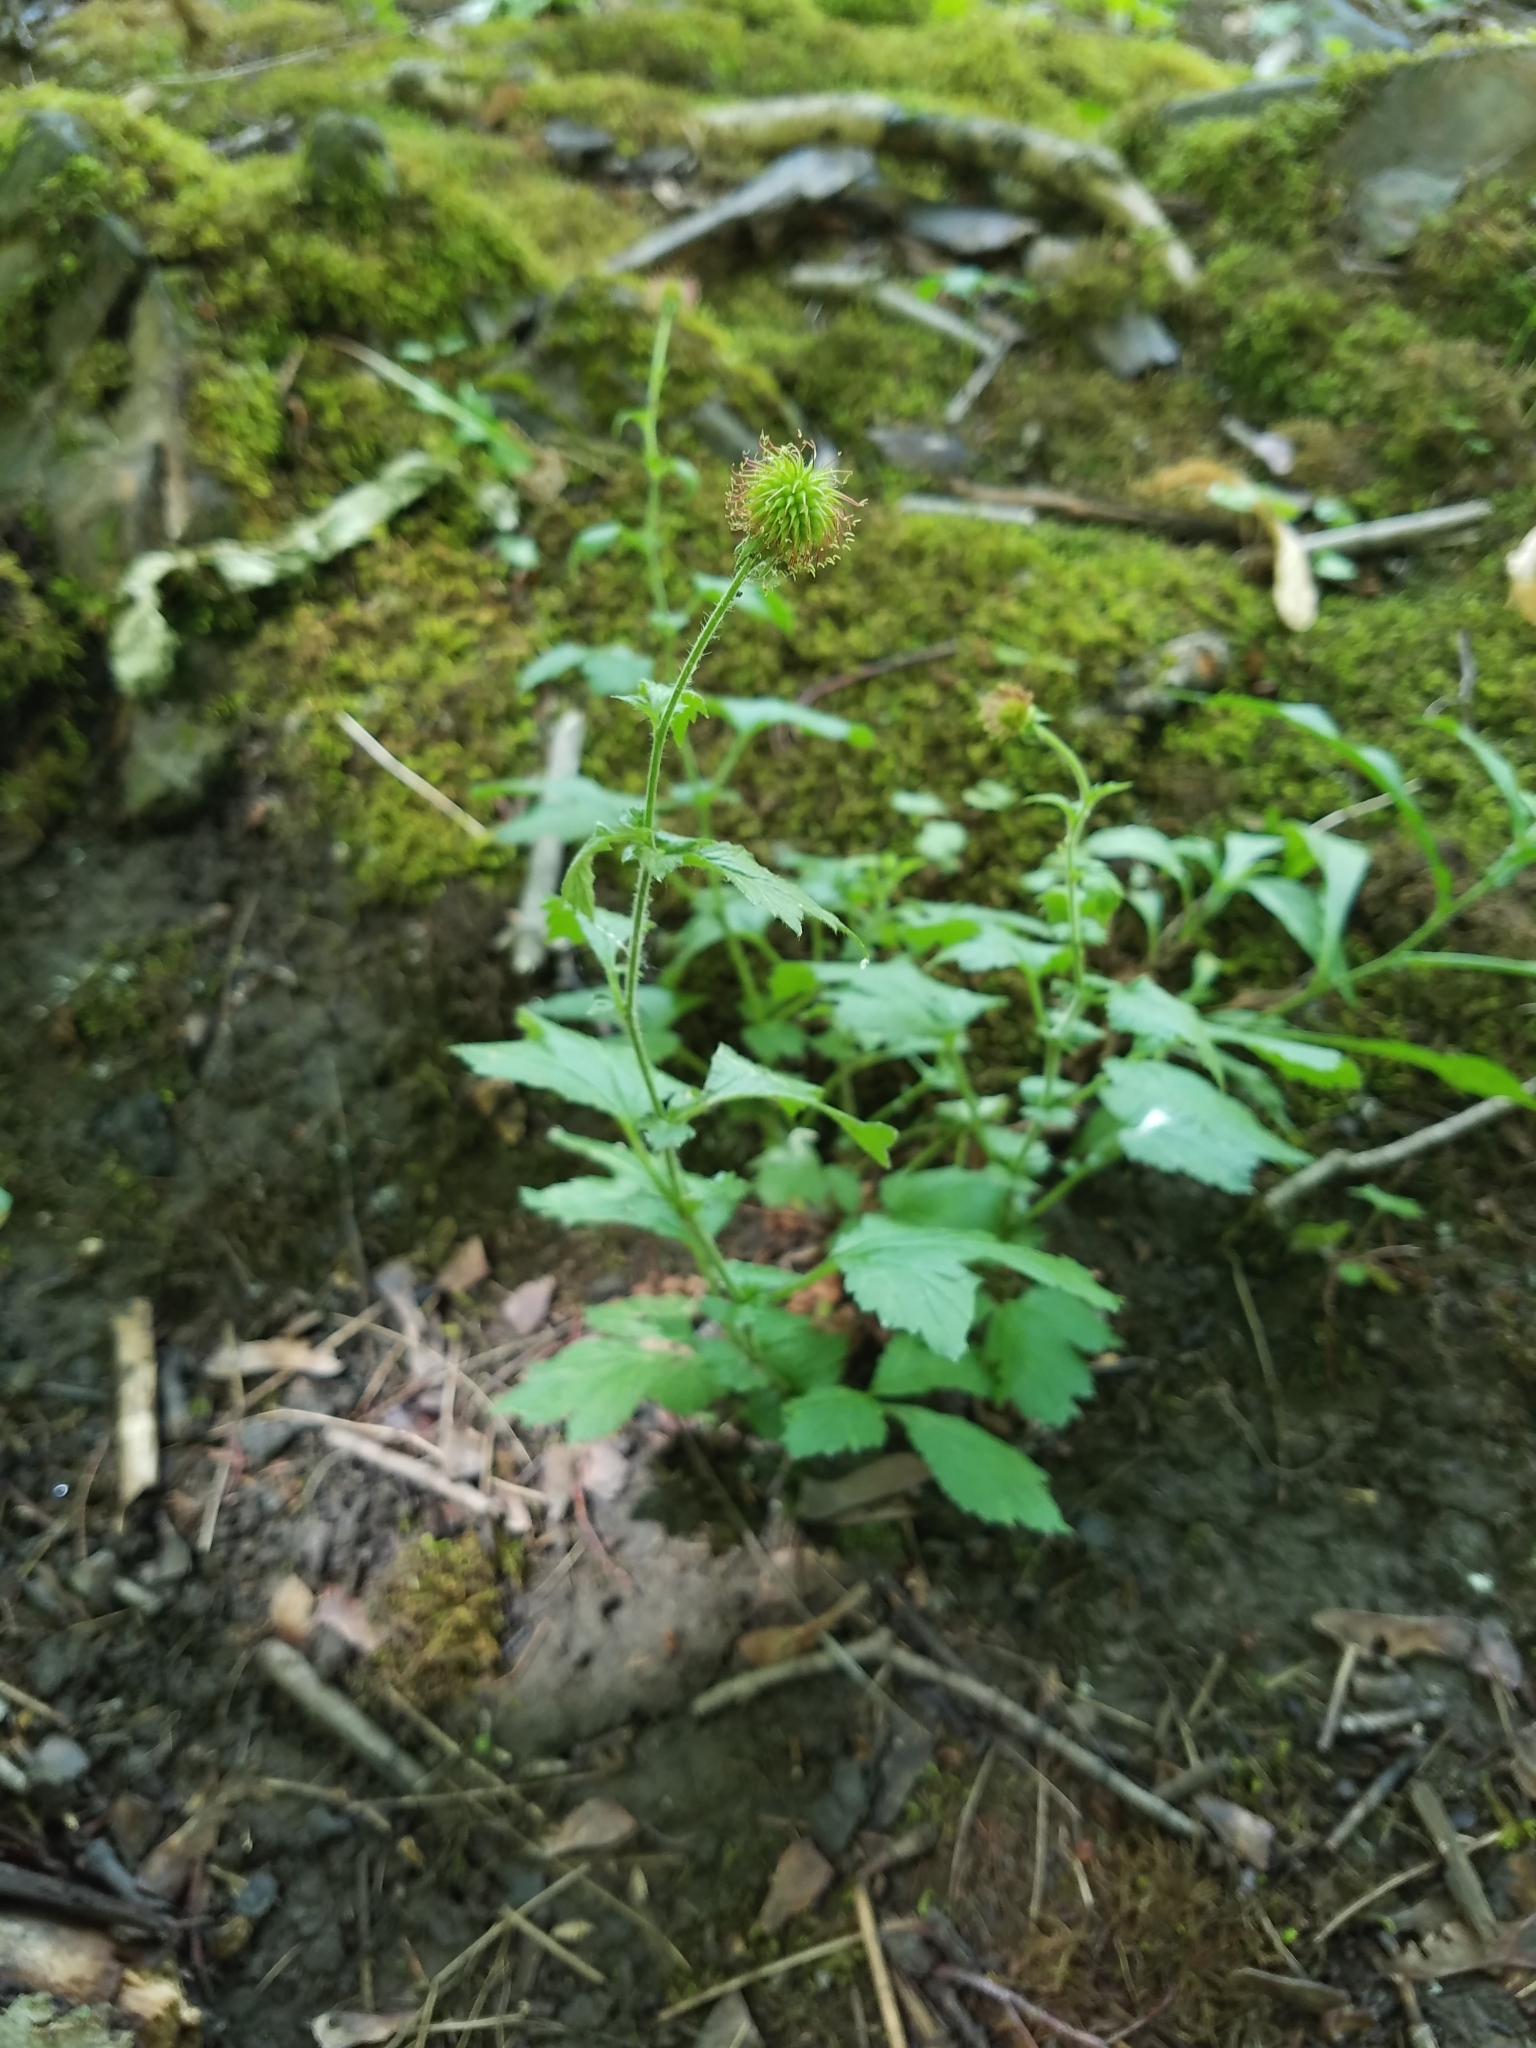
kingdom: Plantae
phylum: Tracheophyta
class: Magnoliopsida
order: Rosales
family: Rosaceae
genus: Geum
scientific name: Geum urbanum
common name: Wood avens
